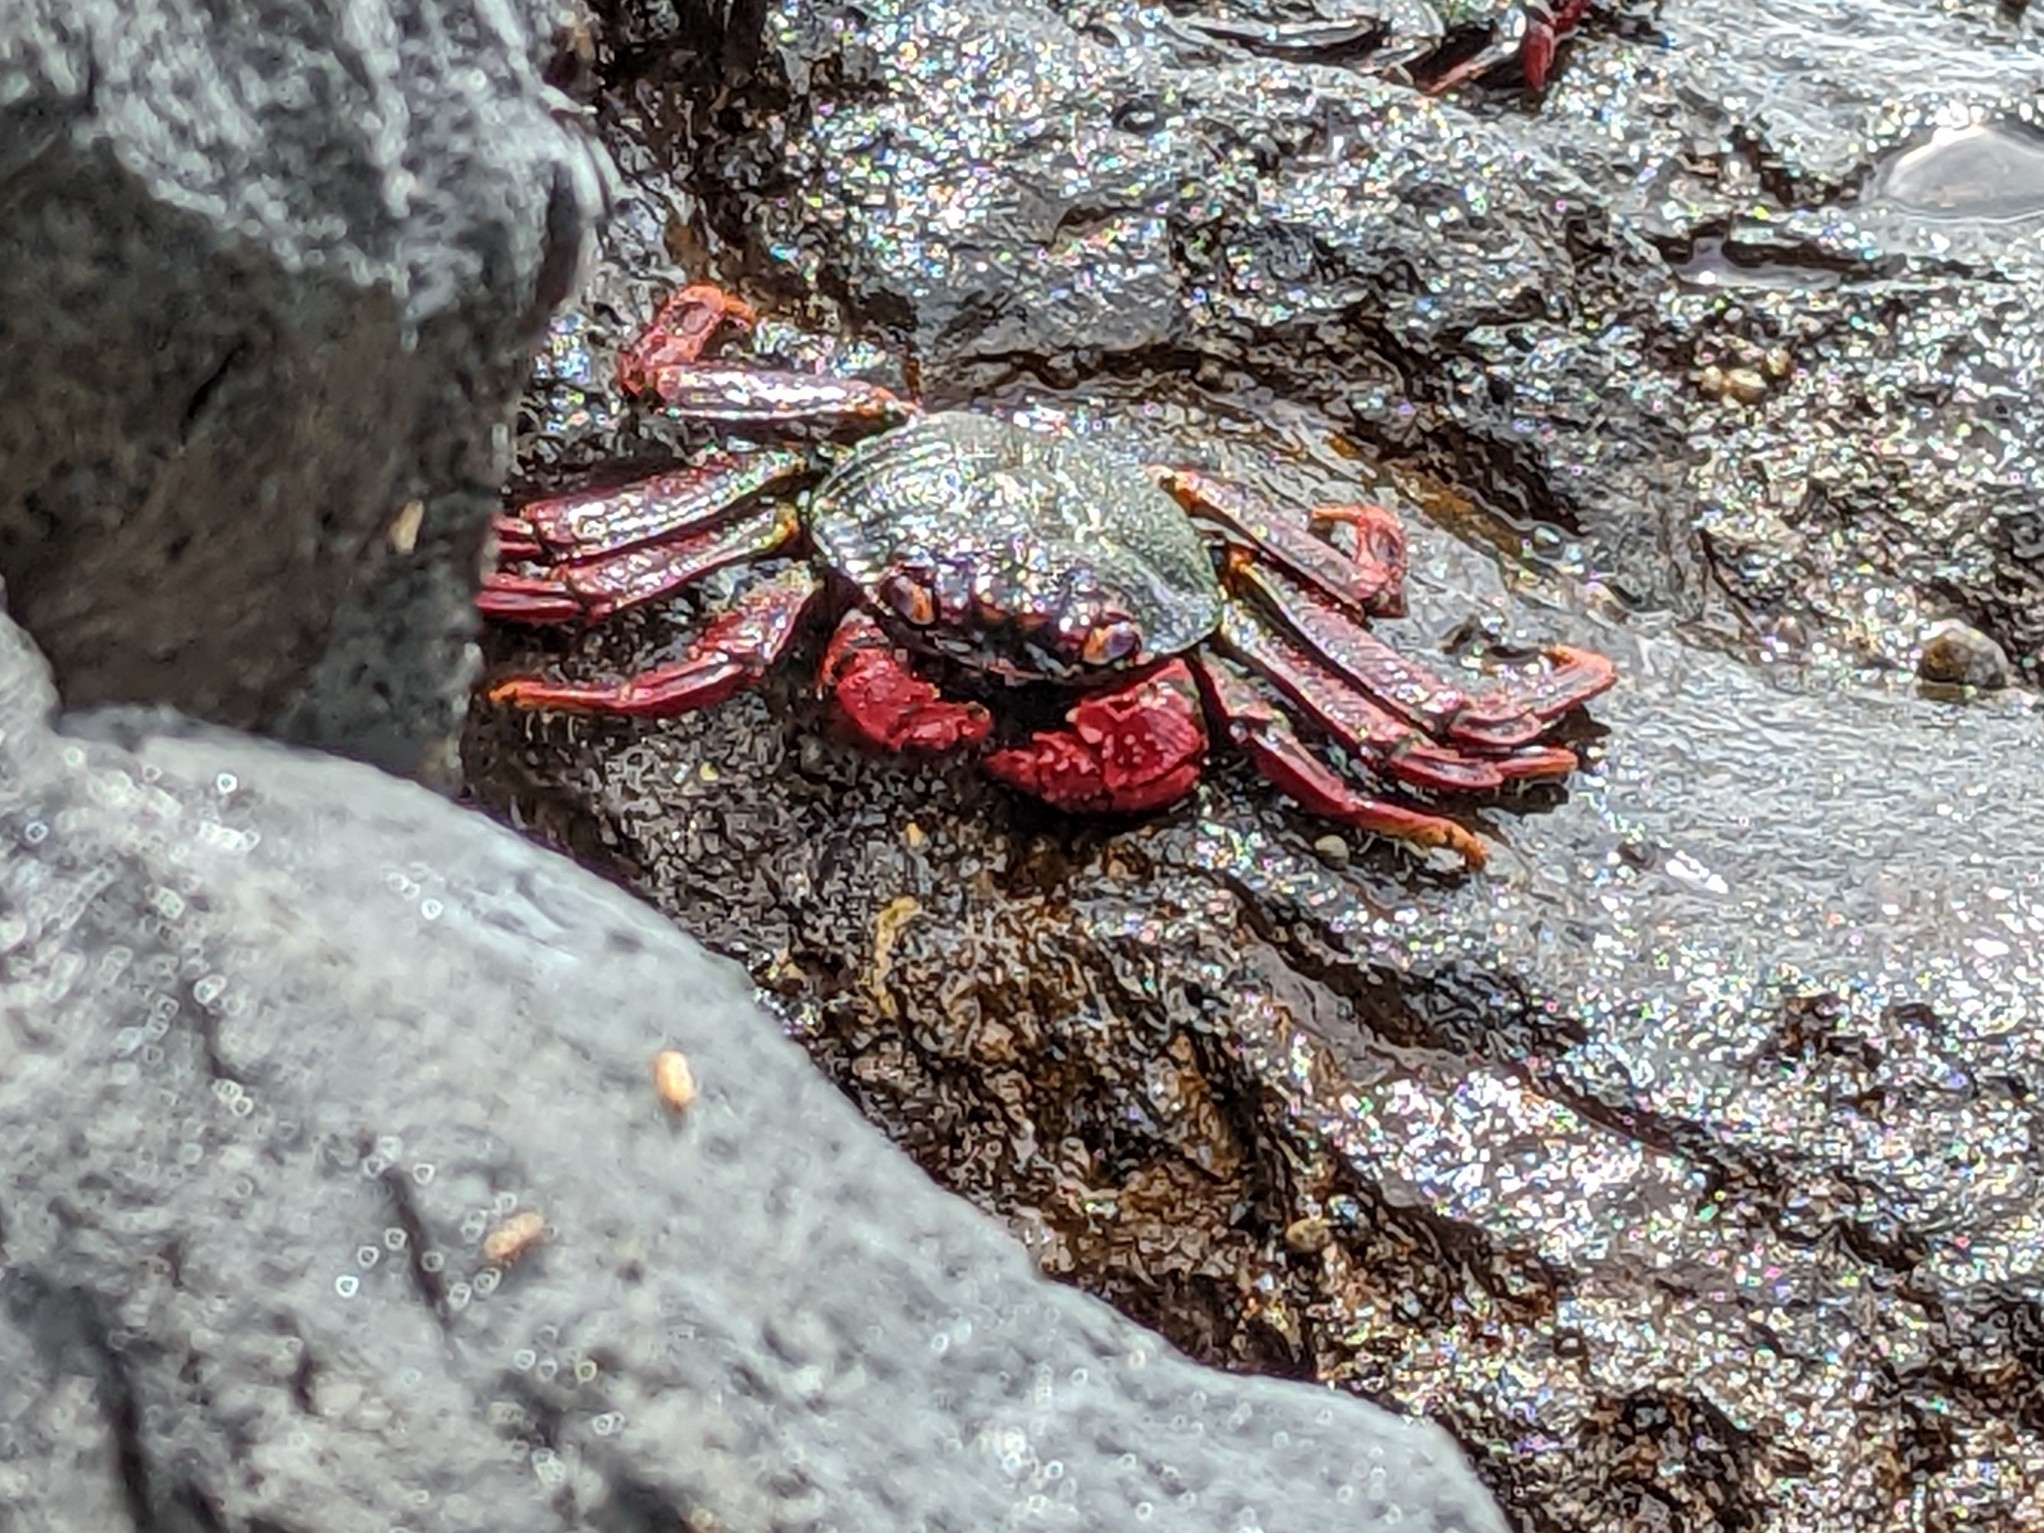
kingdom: Animalia
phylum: Arthropoda
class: Malacostraca
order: Decapoda
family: Grapsidae
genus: Grapsus
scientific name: Grapsus adscensionis
